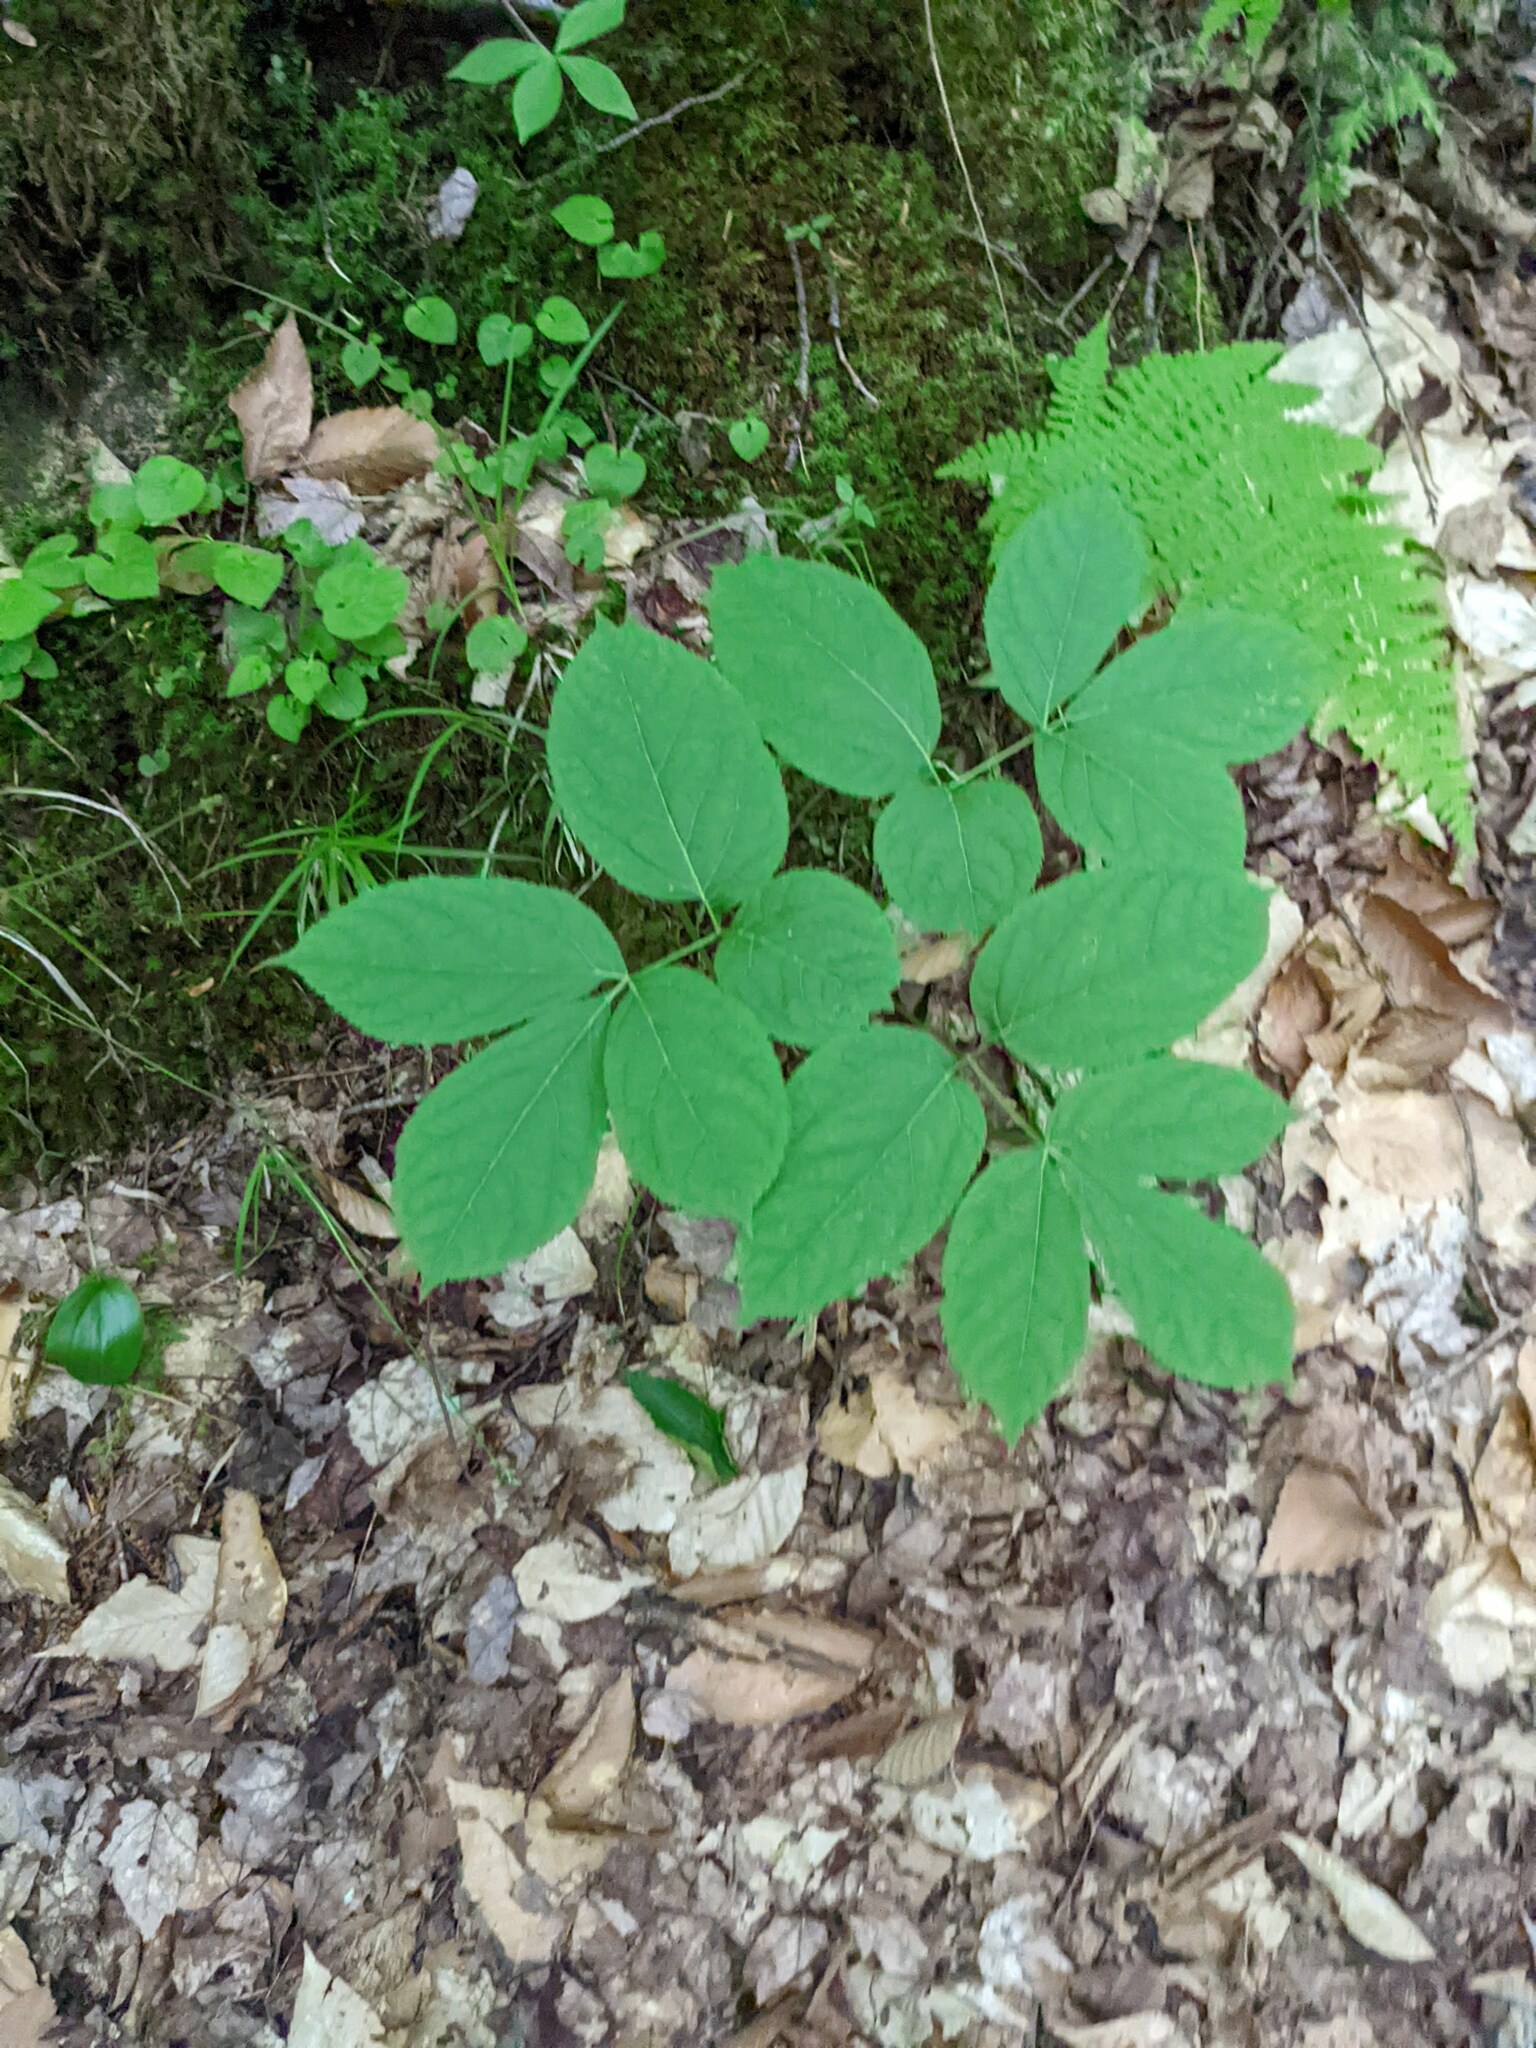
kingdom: Plantae
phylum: Tracheophyta
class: Magnoliopsida
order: Apiales
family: Araliaceae
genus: Aralia
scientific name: Aralia nudicaulis
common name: Wild sarsaparilla
